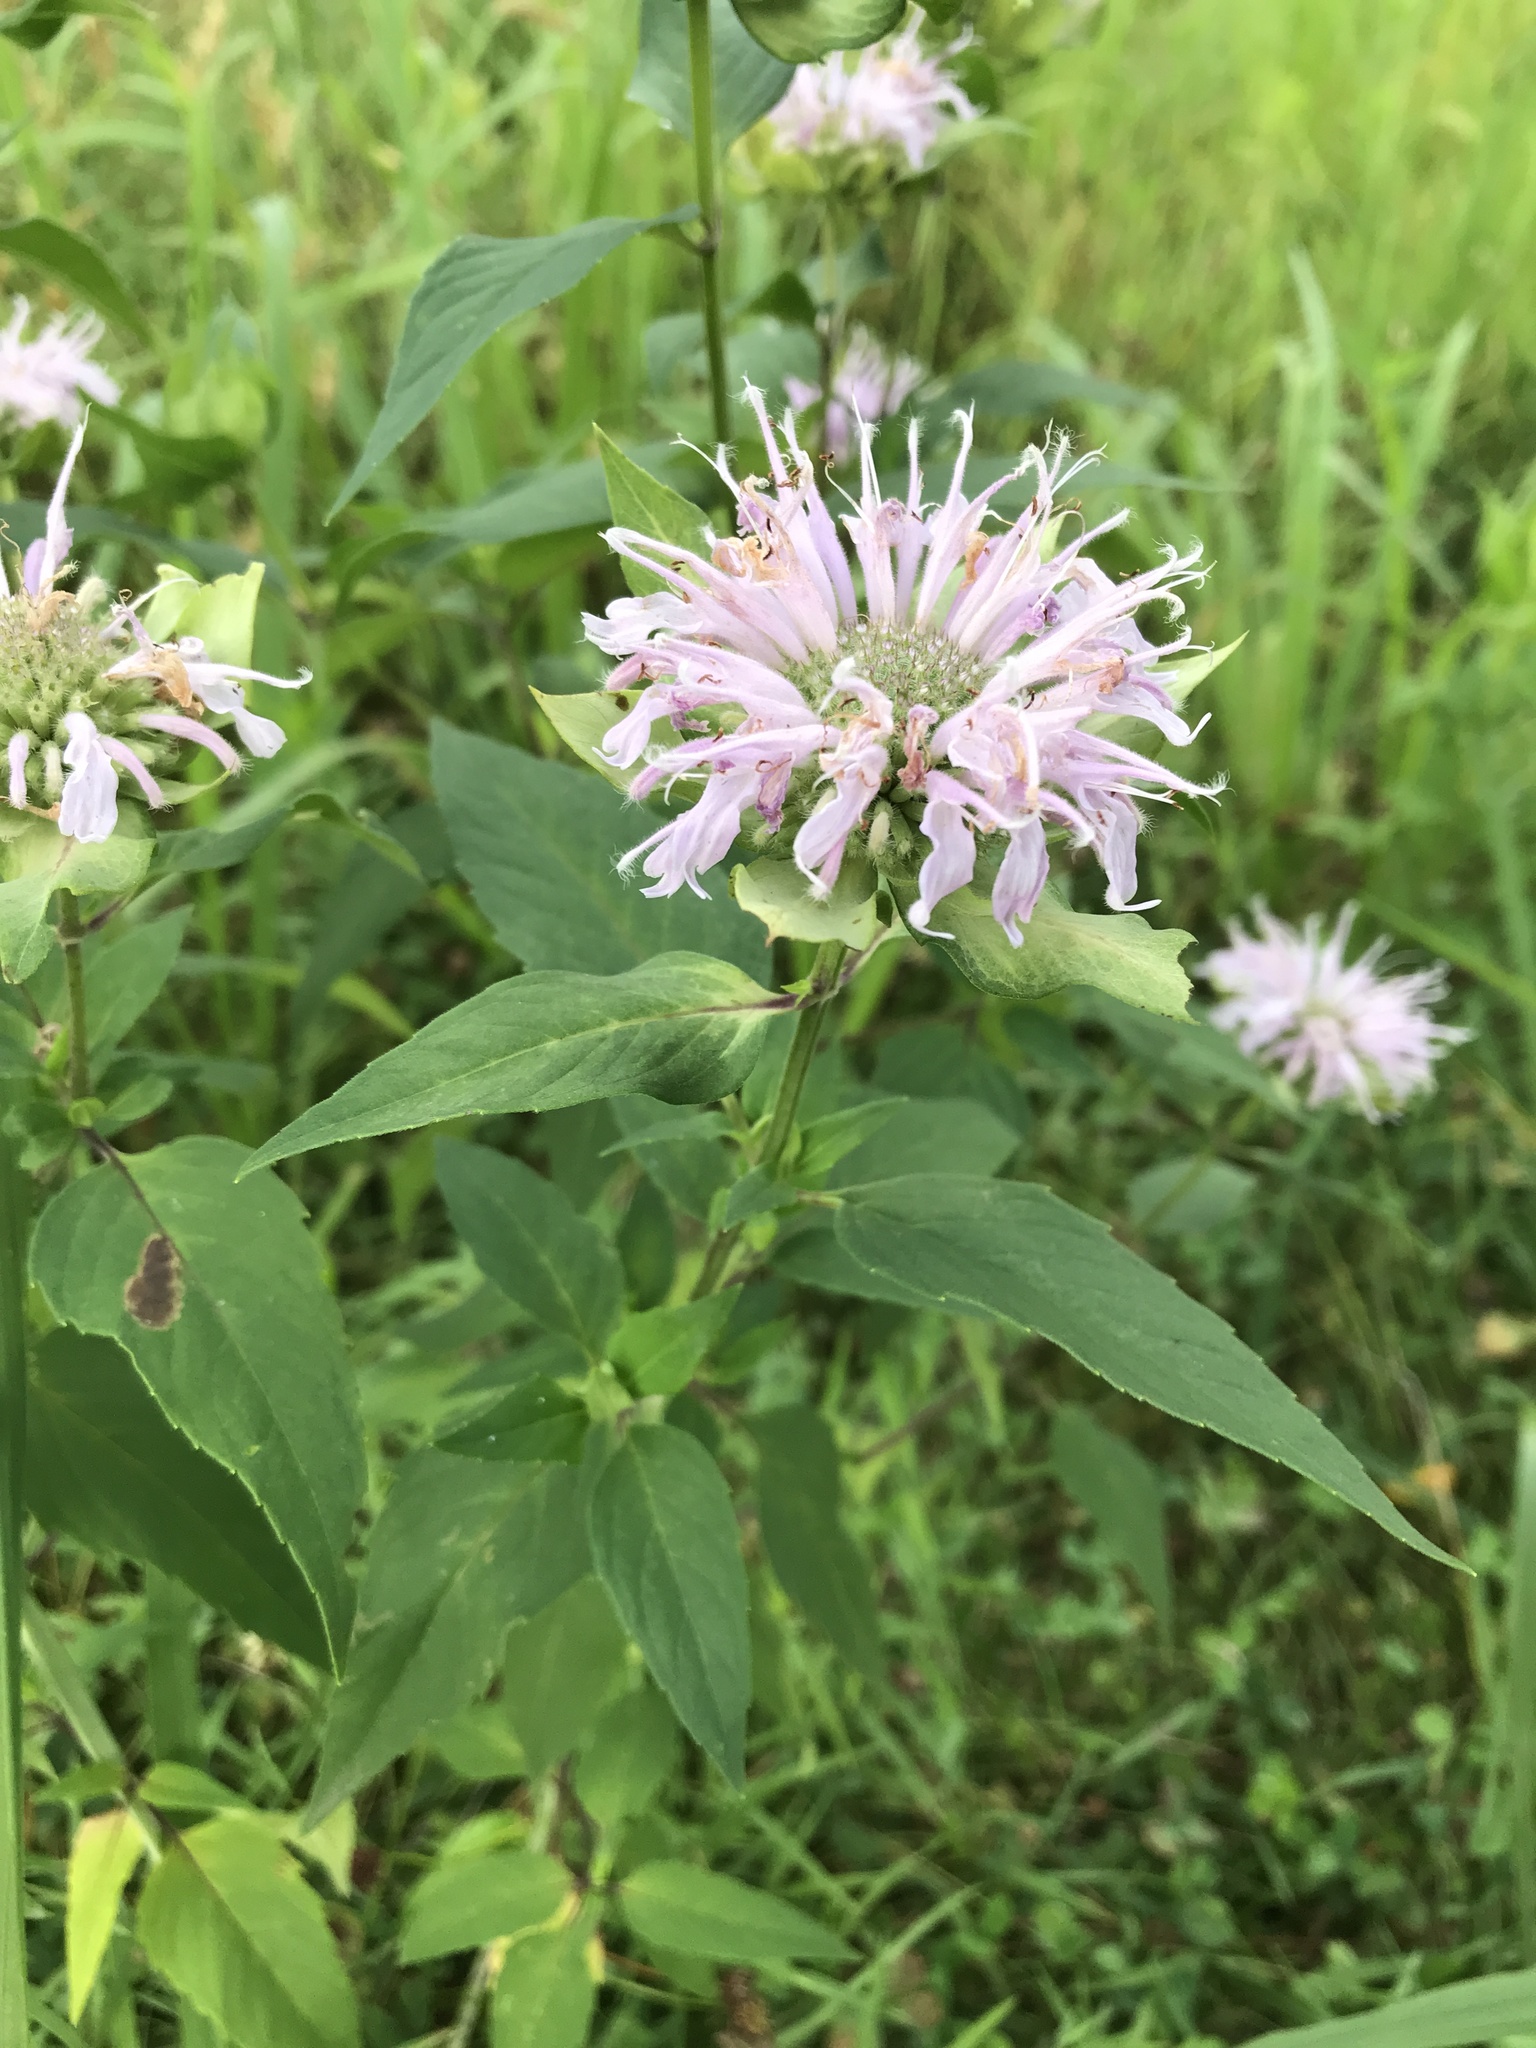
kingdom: Plantae
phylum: Tracheophyta
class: Magnoliopsida
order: Lamiales
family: Lamiaceae
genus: Monarda
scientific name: Monarda fistulosa
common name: Purple beebalm
